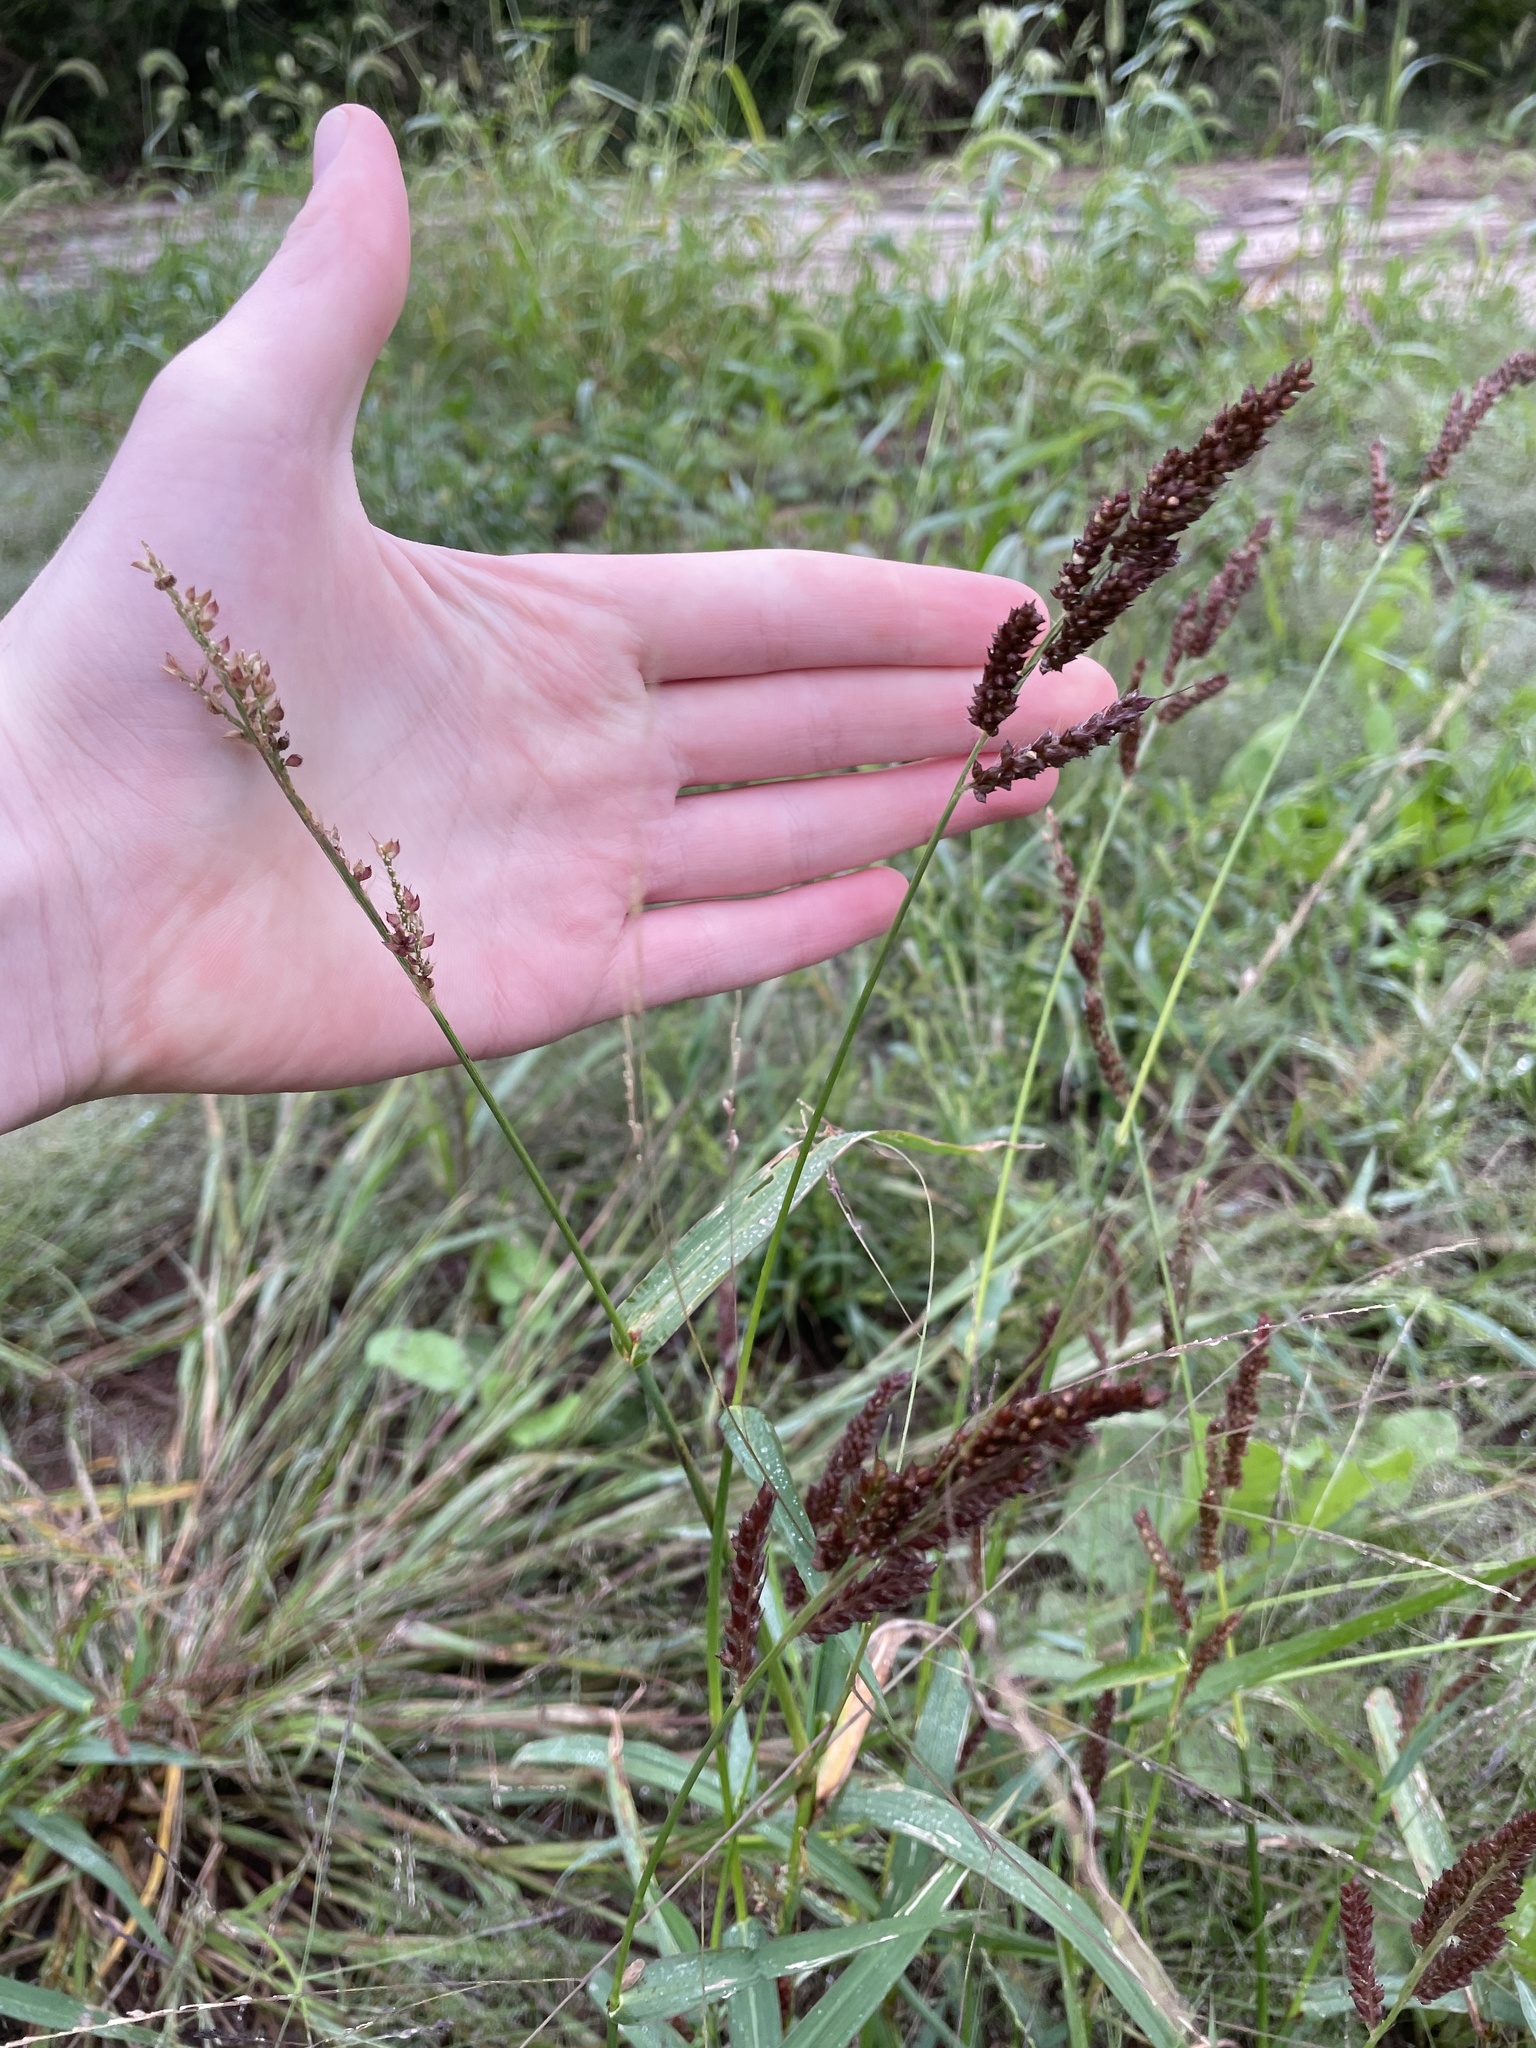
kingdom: Plantae
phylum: Tracheophyta
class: Liliopsida
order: Poales
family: Poaceae
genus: Echinochloa
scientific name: Echinochloa crus-galli
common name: Cockspur
